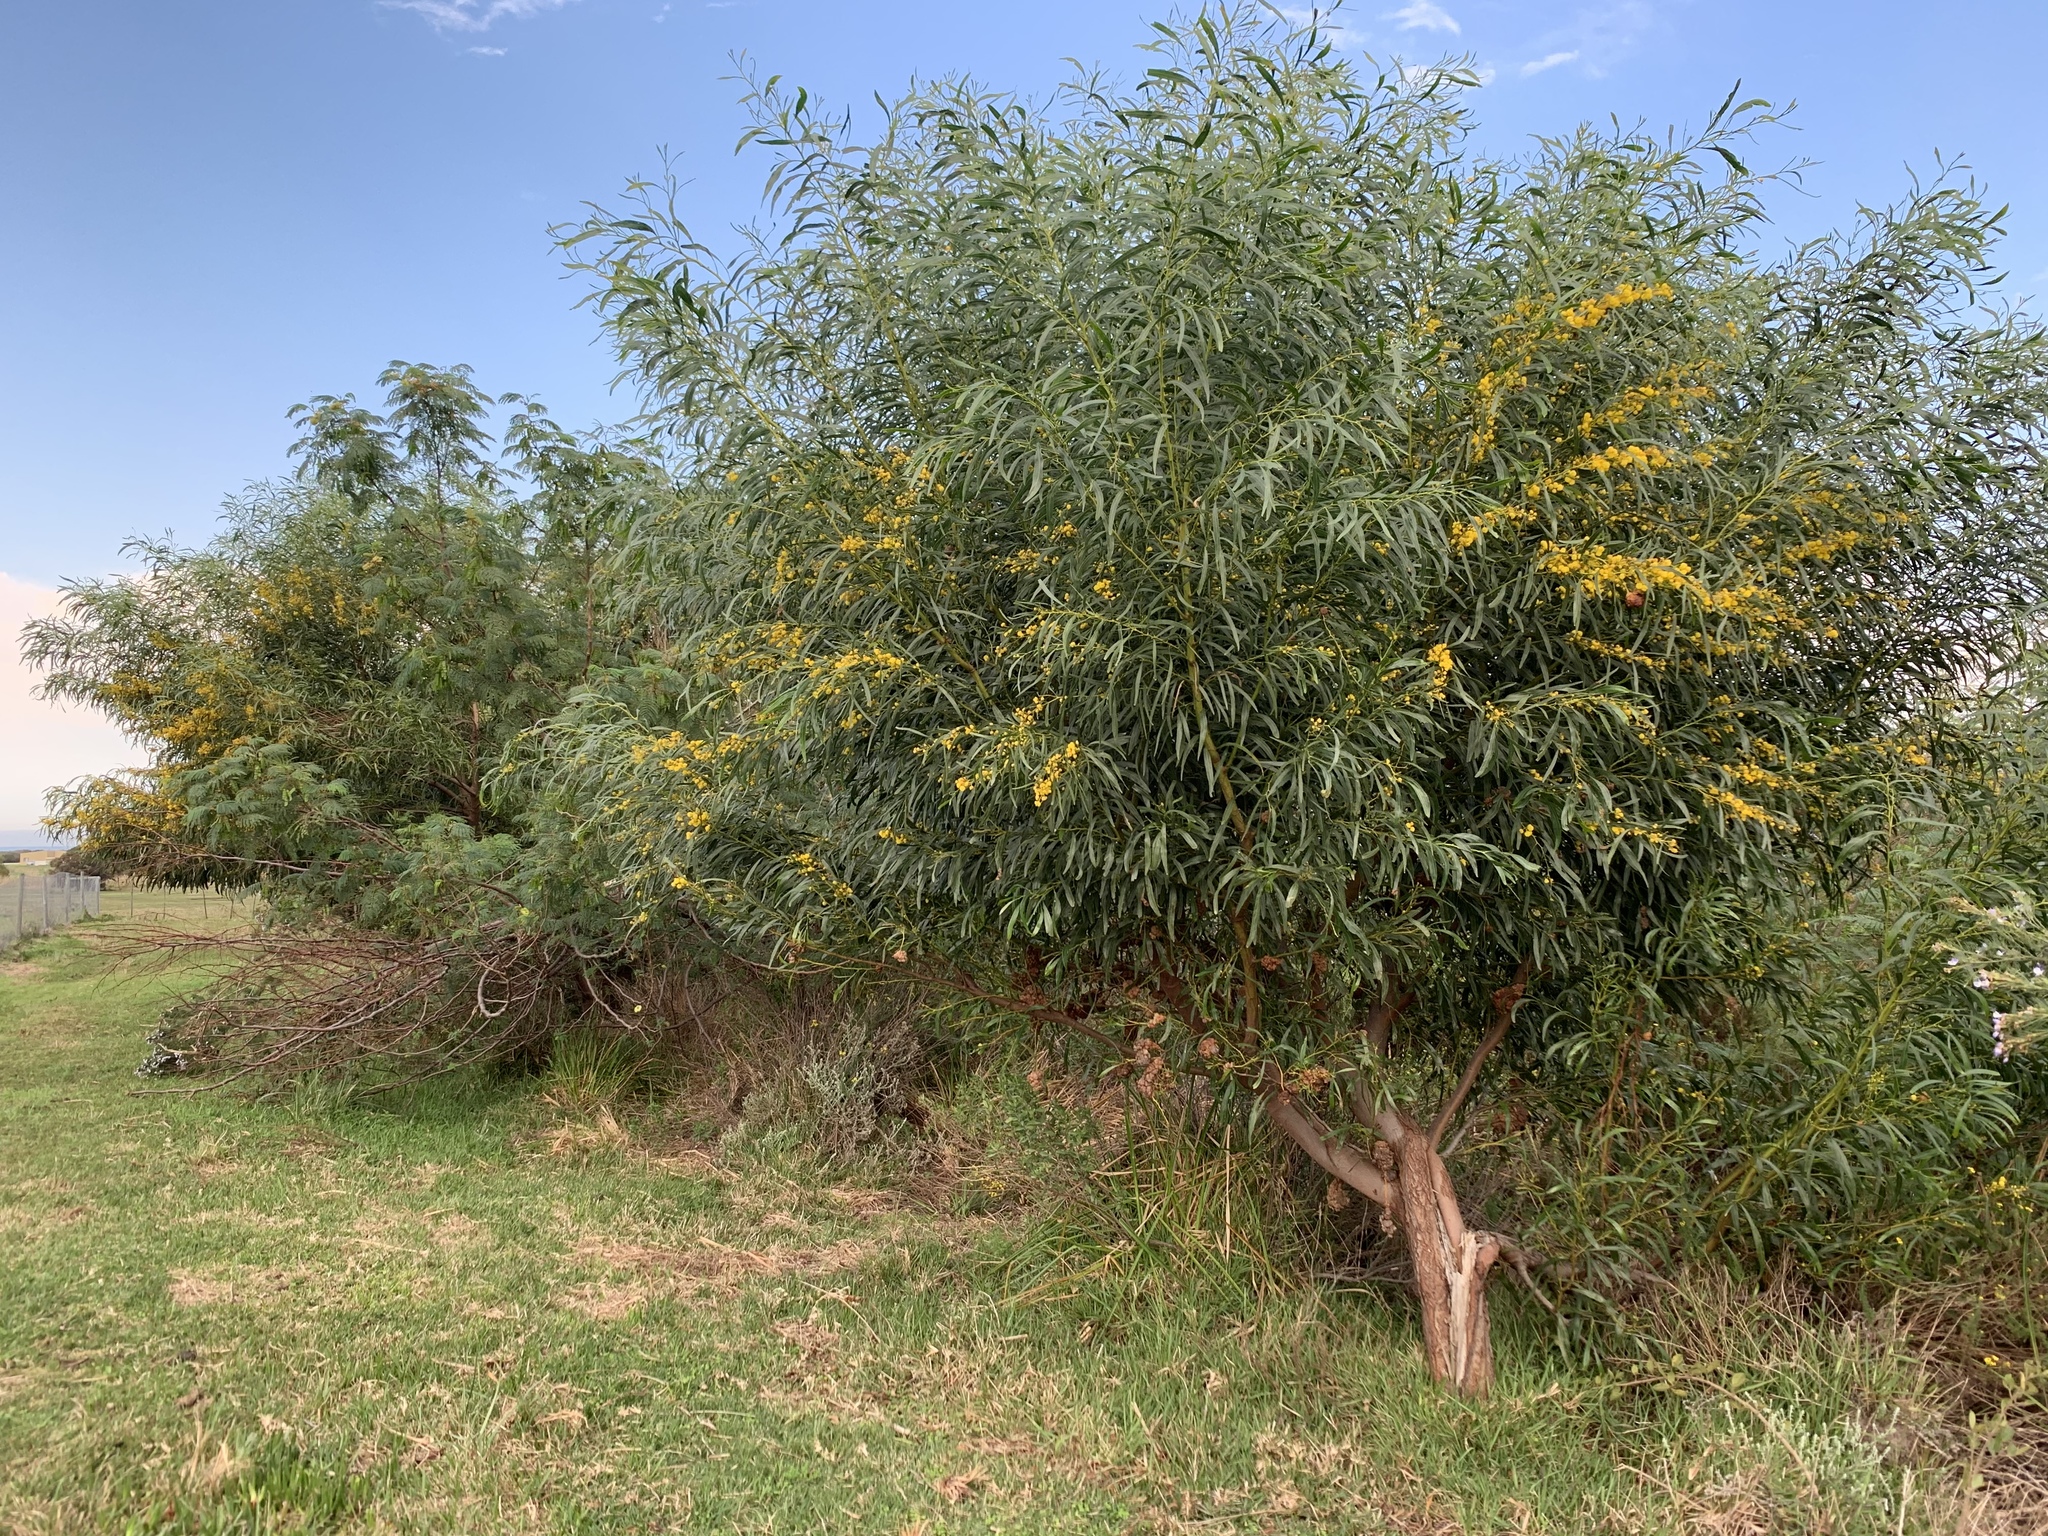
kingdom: Plantae
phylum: Tracheophyta
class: Magnoliopsida
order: Fabales
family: Fabaceae
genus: Acacia
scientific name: Acacia saligna
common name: Orange wattle
